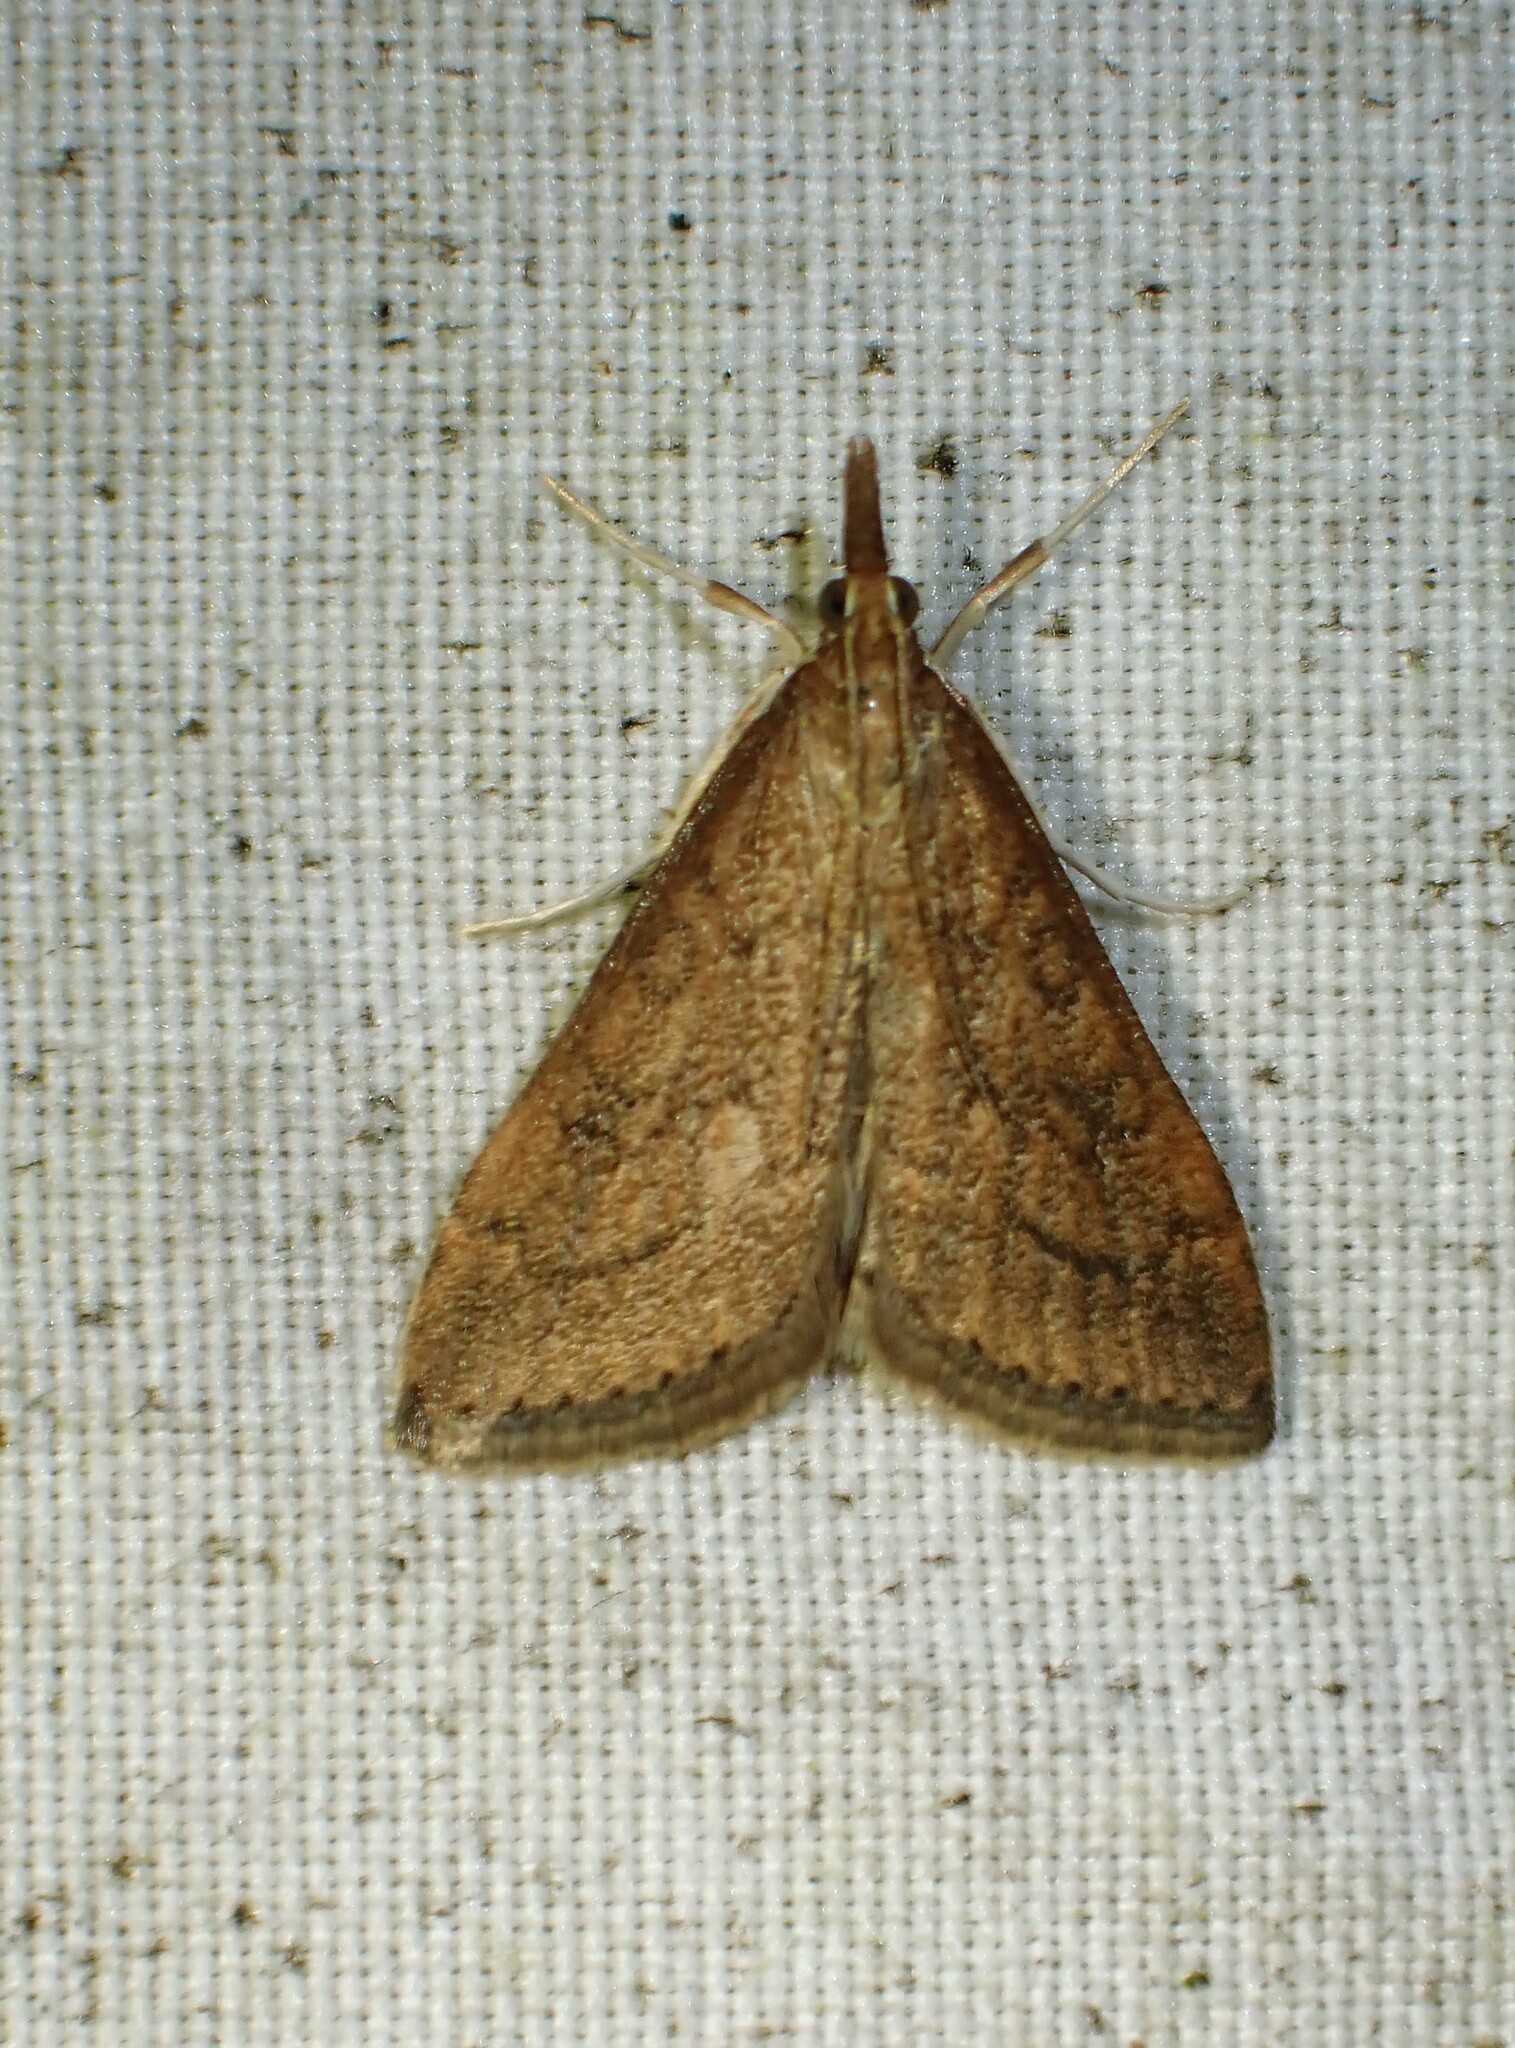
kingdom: Animalia
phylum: Arthropoda
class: Insecta
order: Lepidoptera
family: Crambidae
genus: Udea
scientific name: Udea rubigalis
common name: Celery leaftier moth
